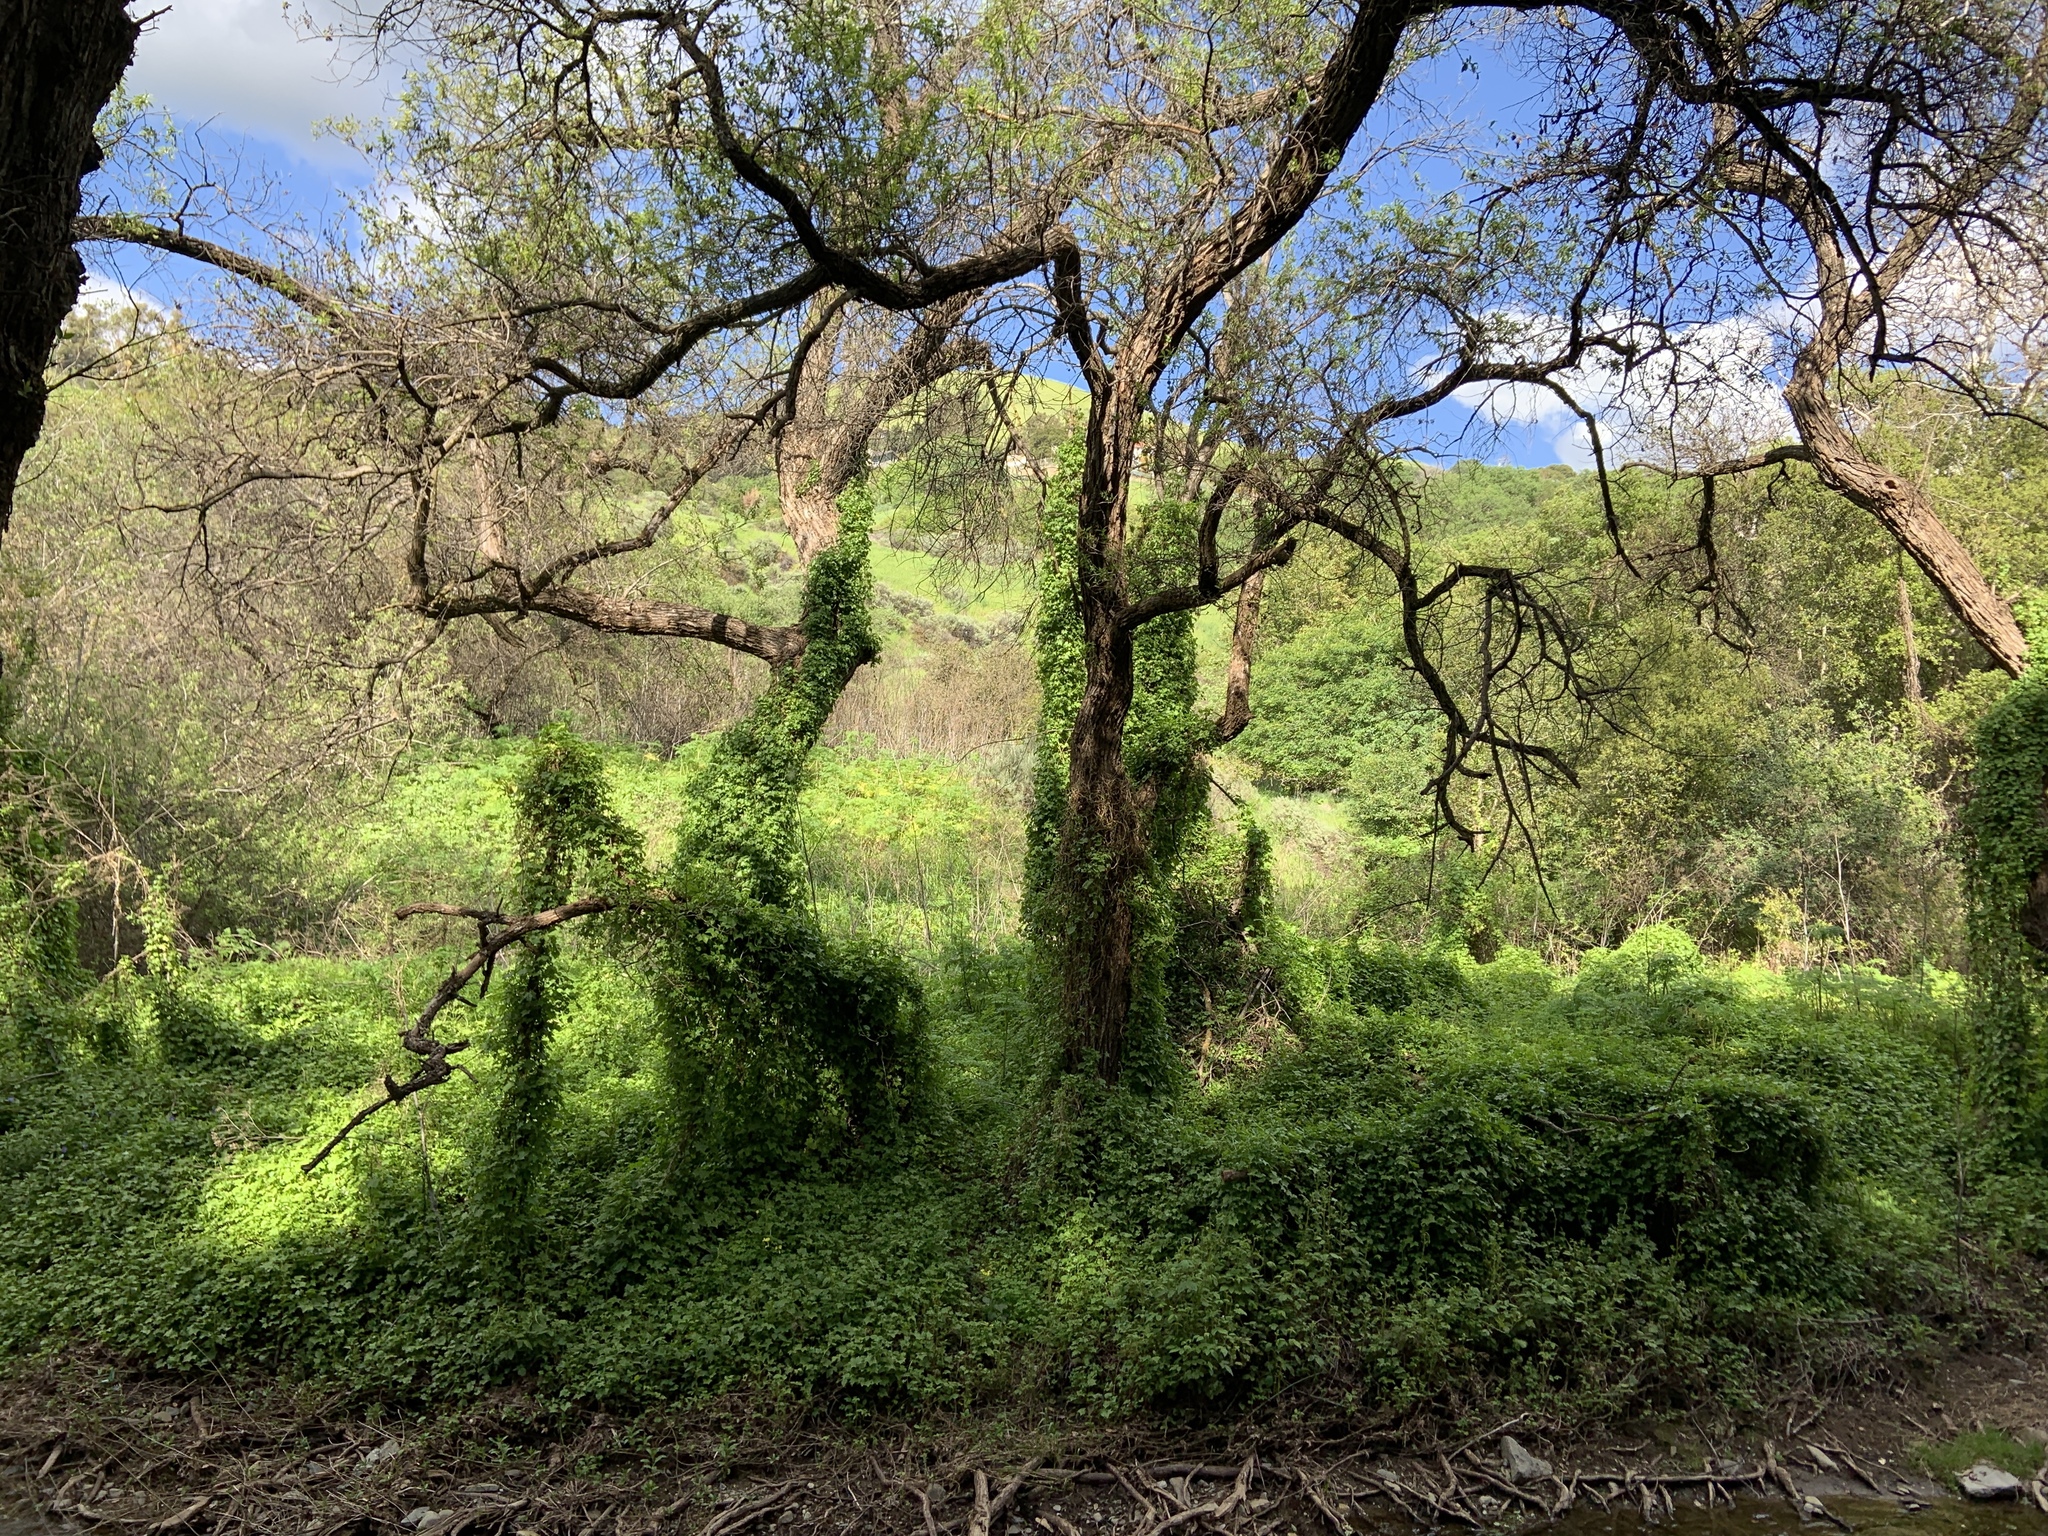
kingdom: Plantae
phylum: Tracheophyta
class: Magnoliopsida
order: Asterales
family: Asteraceae
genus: Delairea
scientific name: Delairea odorata
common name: Cape-ivy
